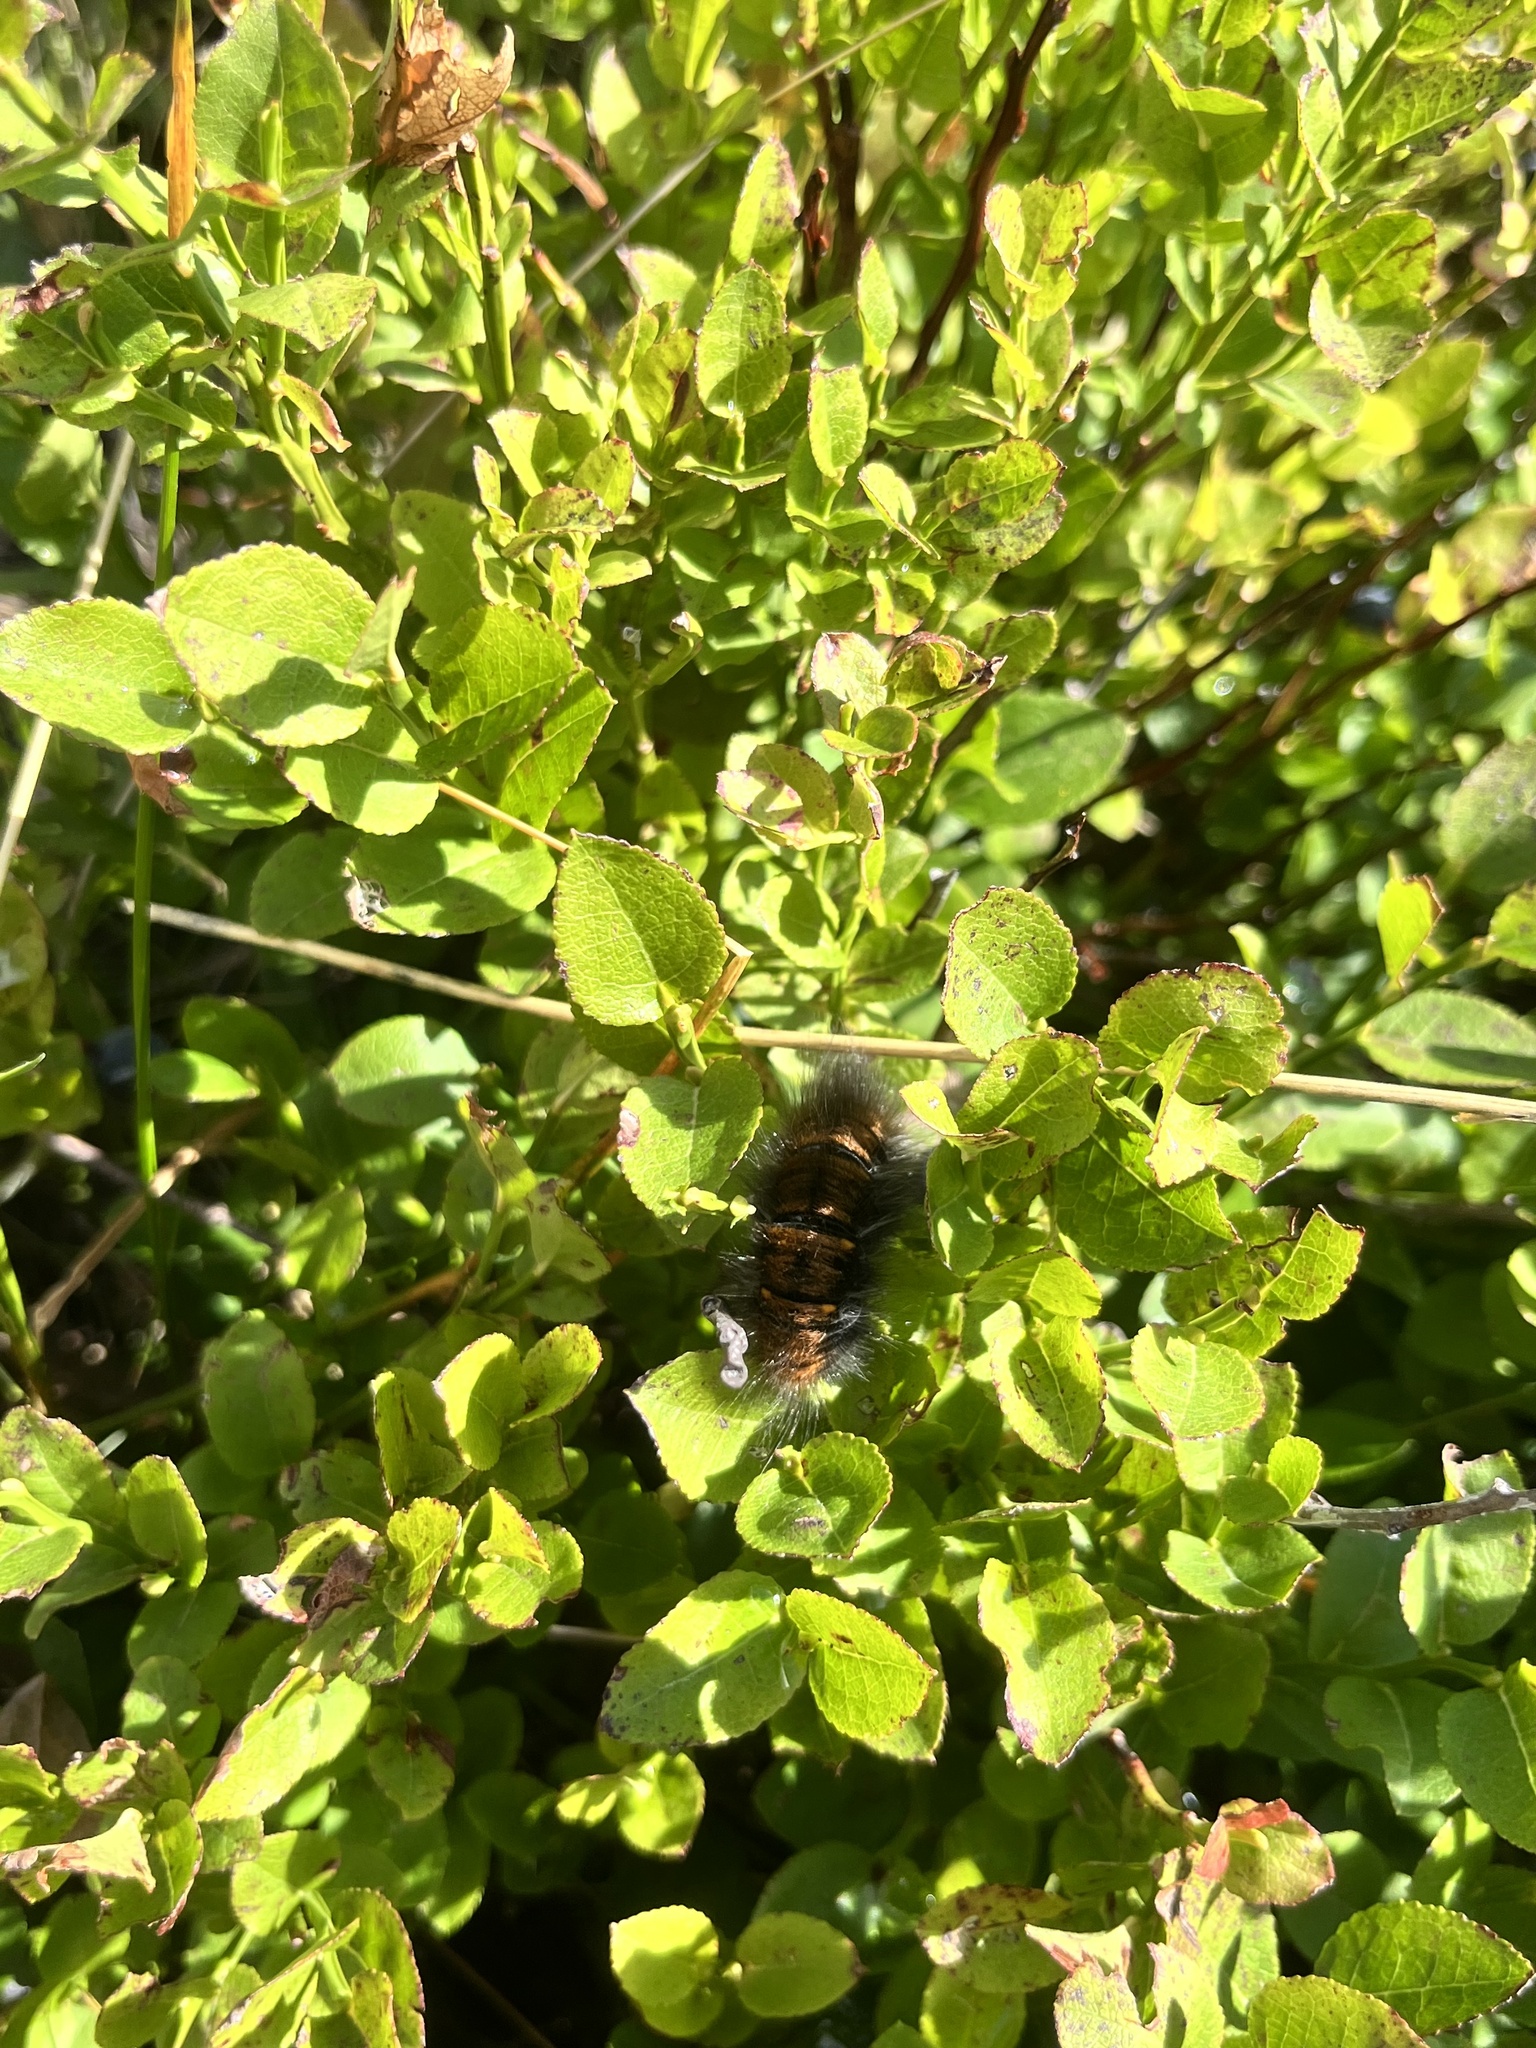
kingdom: Animalia
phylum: Arthropoda
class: Insecta
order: Lepidoptera
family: Lasiocampidae
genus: Macrothylacia
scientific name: Macrothylacia rubi
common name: Fox moth
